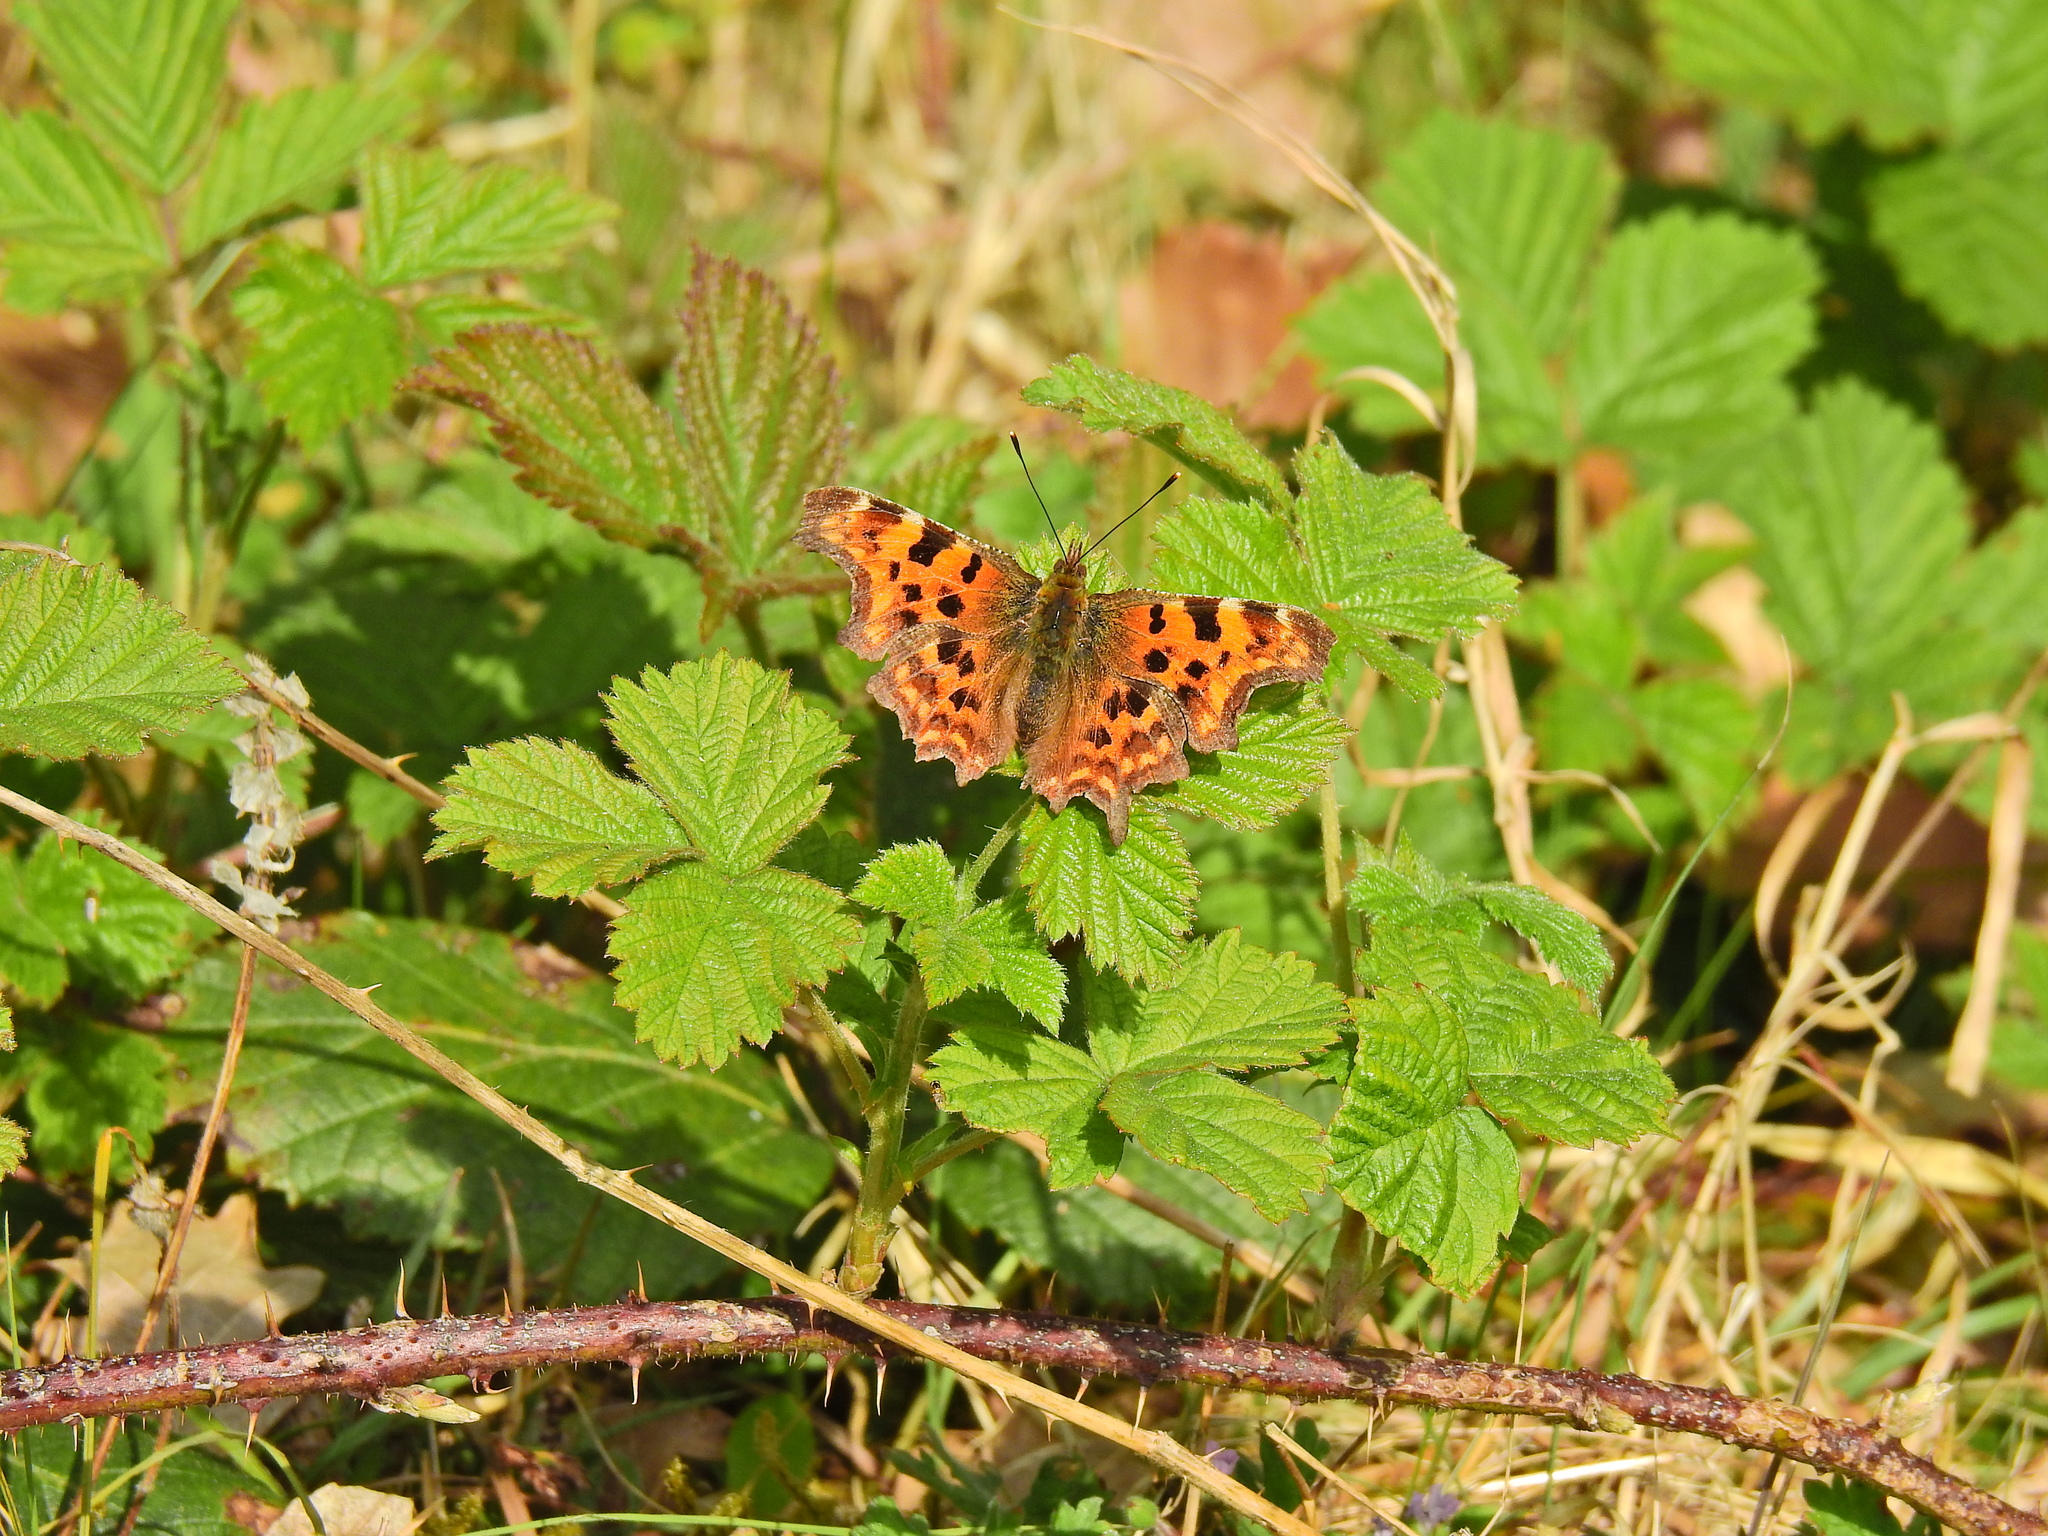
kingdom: Animalia
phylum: Arthropoda
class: Insecta
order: Lepidoptera
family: Nymphalidae
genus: Polygonia
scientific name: Polygonia c-album
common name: Comma
